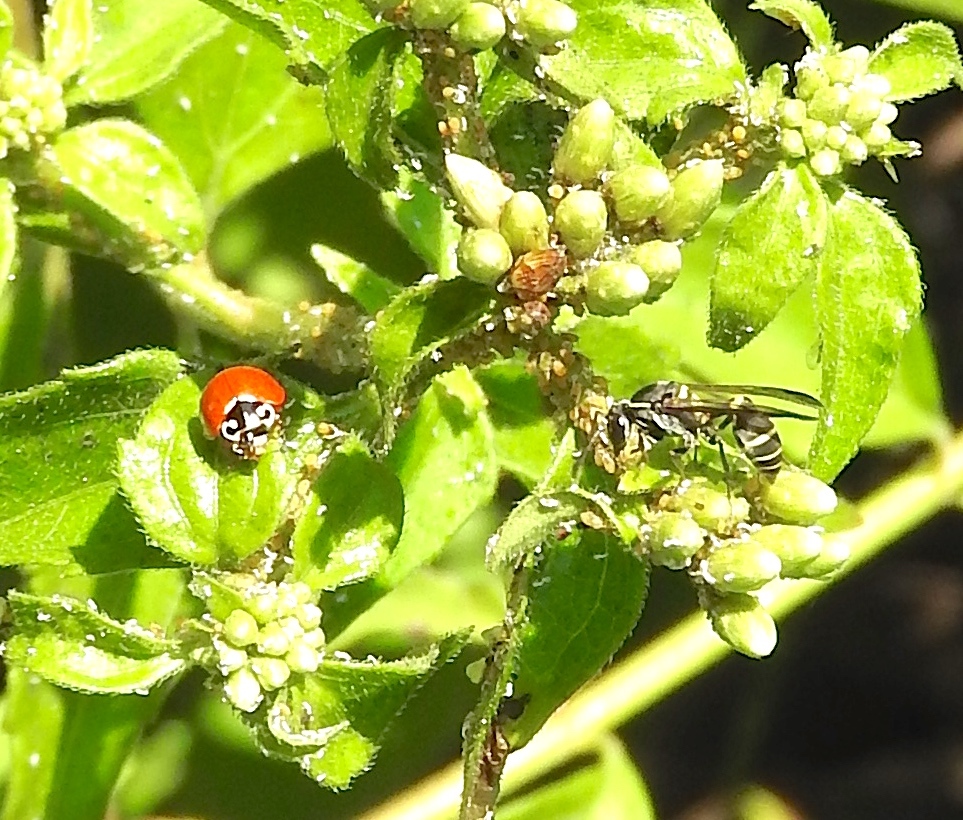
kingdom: Animalia
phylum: Arthropoda
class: Insecta
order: Coleoptera
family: Coccinellidae
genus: Cycloneda
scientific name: Cycloneda sanguinea
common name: Ladybird beetle
